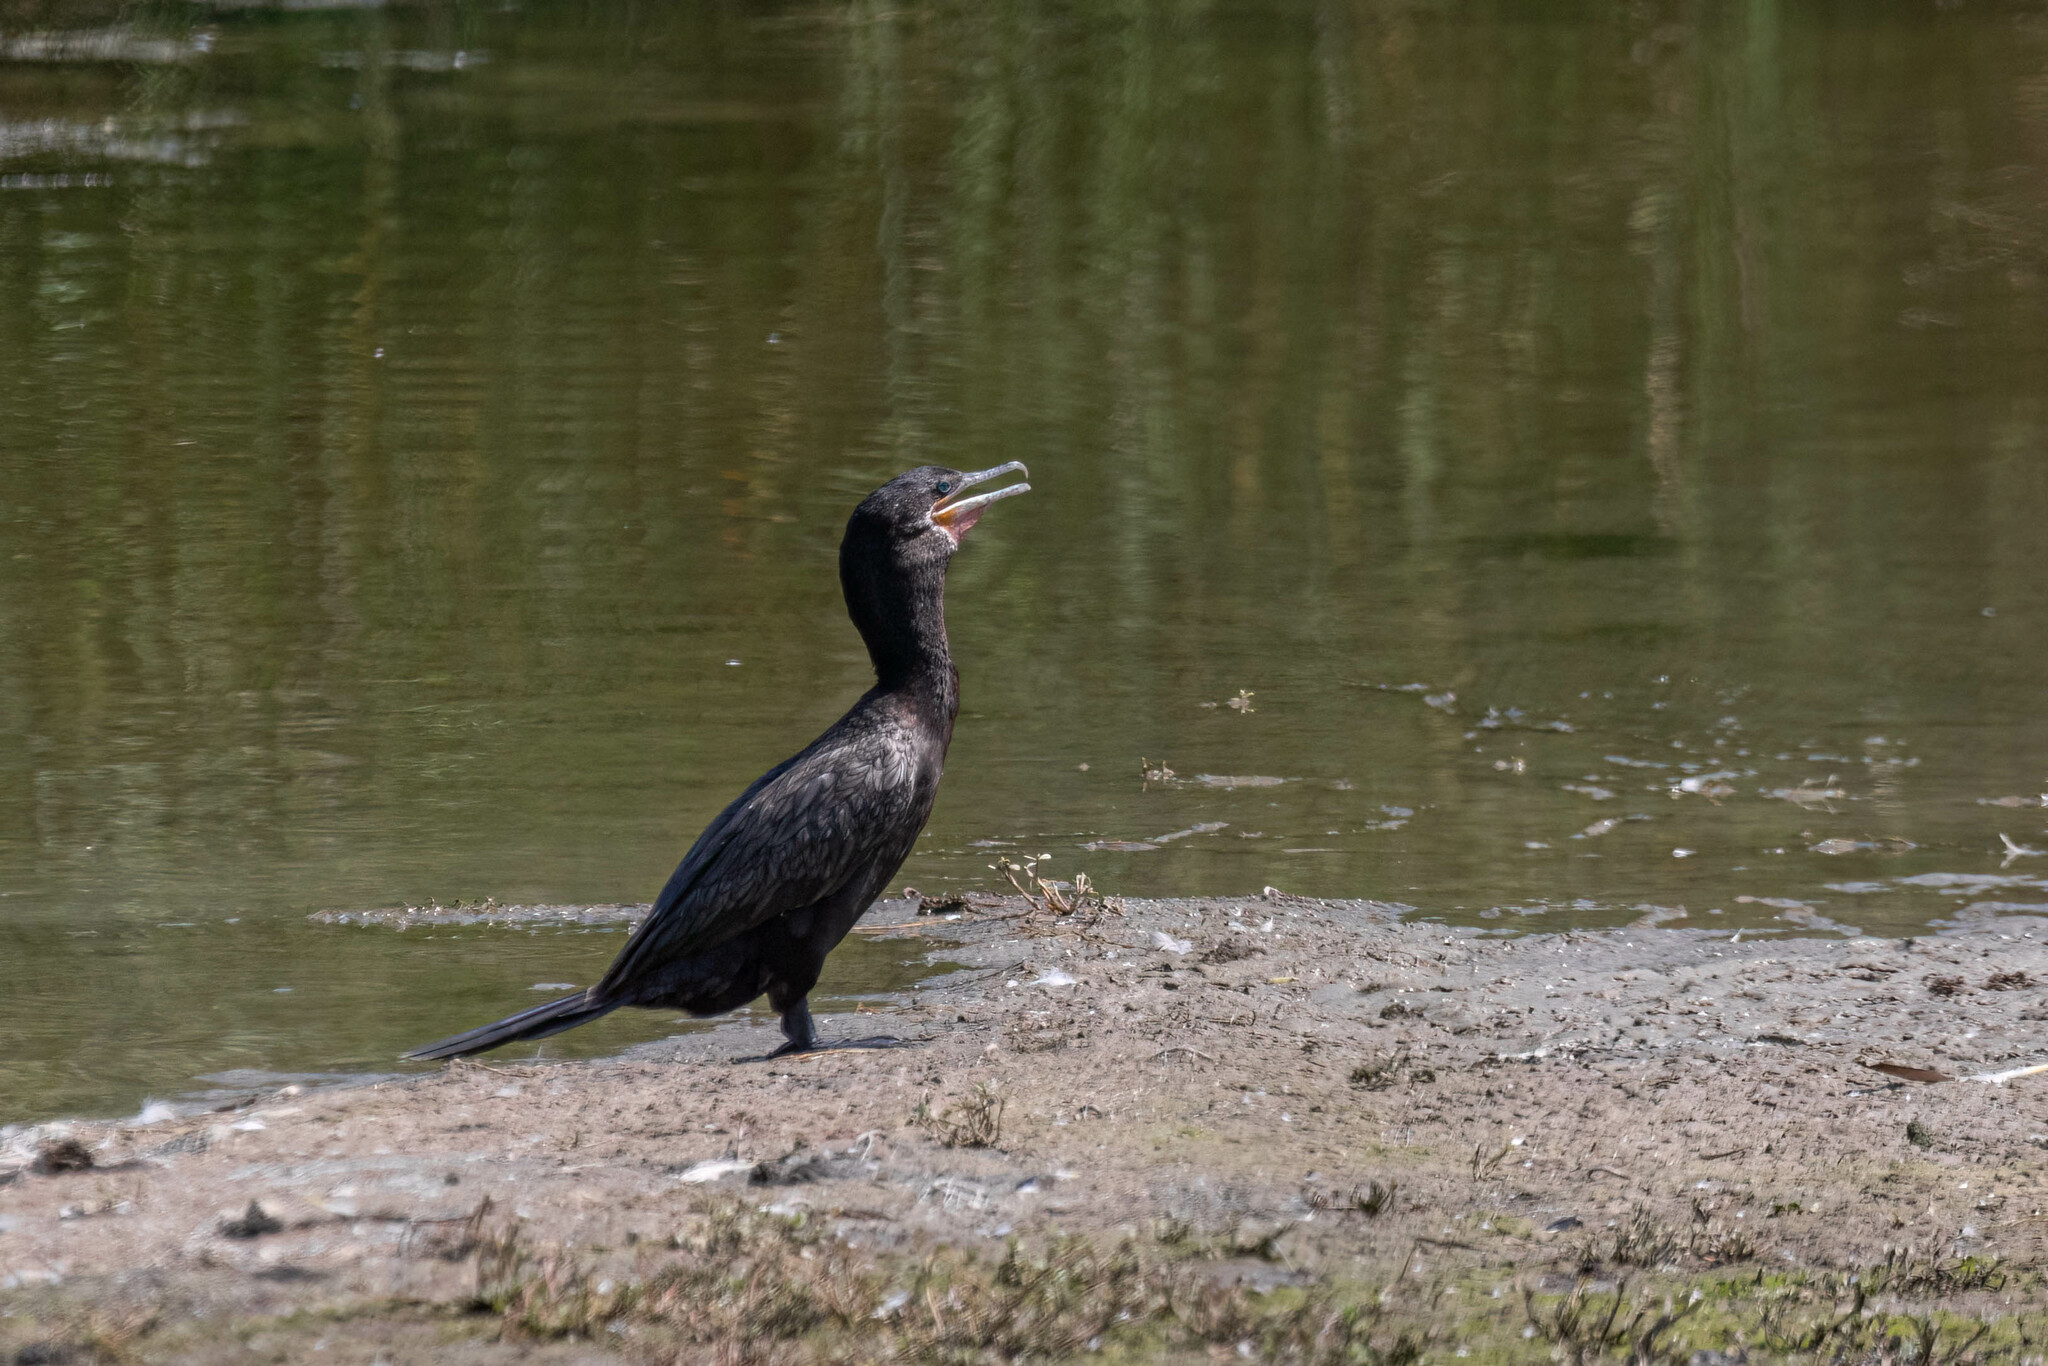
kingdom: Animalia
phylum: Chordata
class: Aves
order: Suliformes
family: Phalacrocoracidae
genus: Phalacrocorax
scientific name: Phalacrocorax brasilianus
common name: Neotropic cormorant
